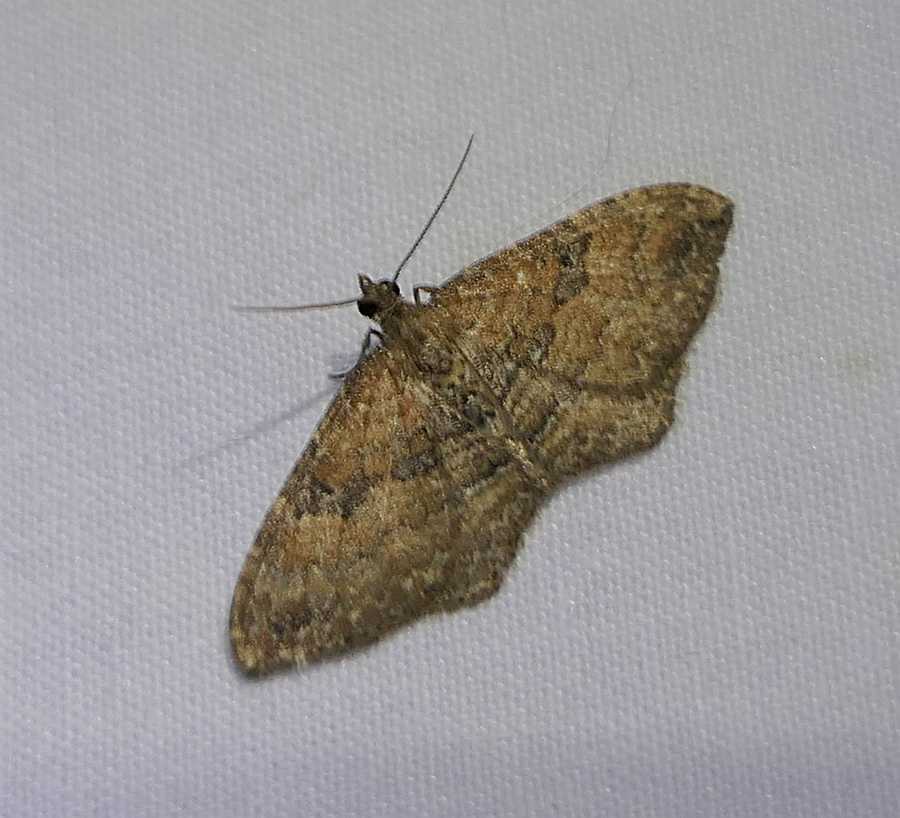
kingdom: Animalia
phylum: Arthropoda
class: Insecta
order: Lepidoptera
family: Geometridae
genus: Orthonama
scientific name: Orthonama obstipata
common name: The gem
